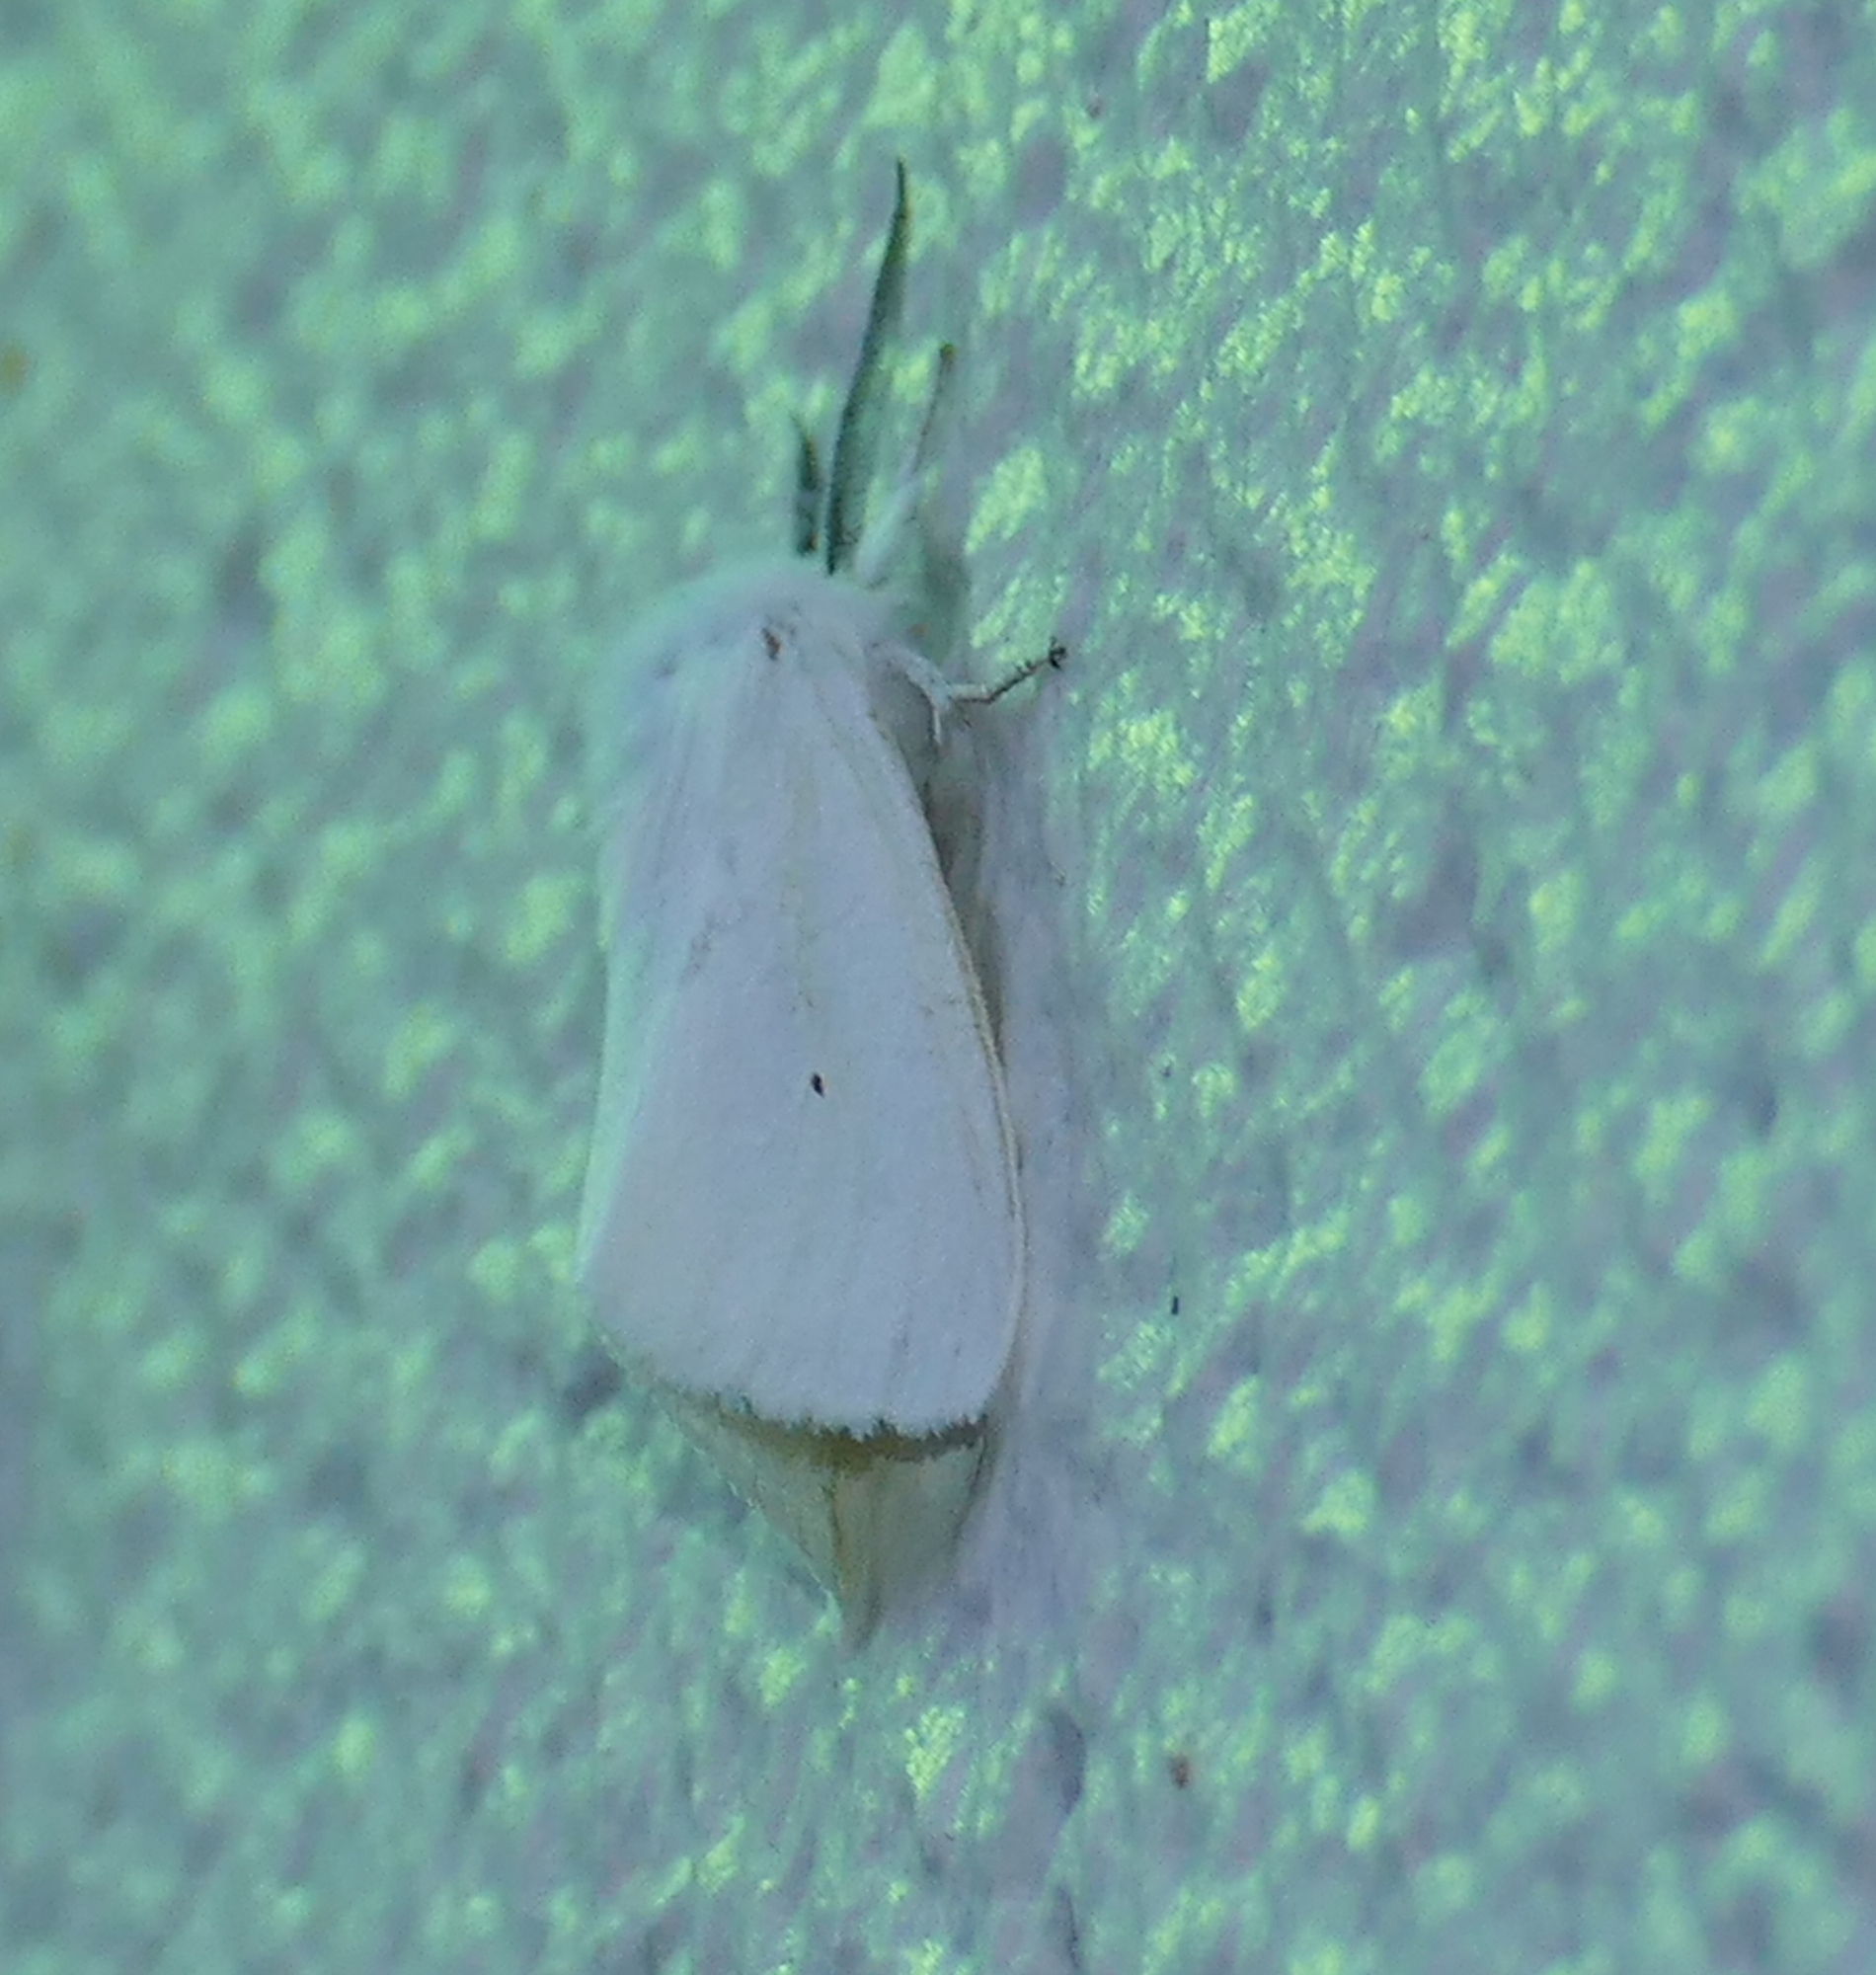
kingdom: Animalia
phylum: Arthropoda
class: Insecta
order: Lepidoptera
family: Erebidae
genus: Spilosoma
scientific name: Spilosoma virginica
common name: Virginia tiger moth
